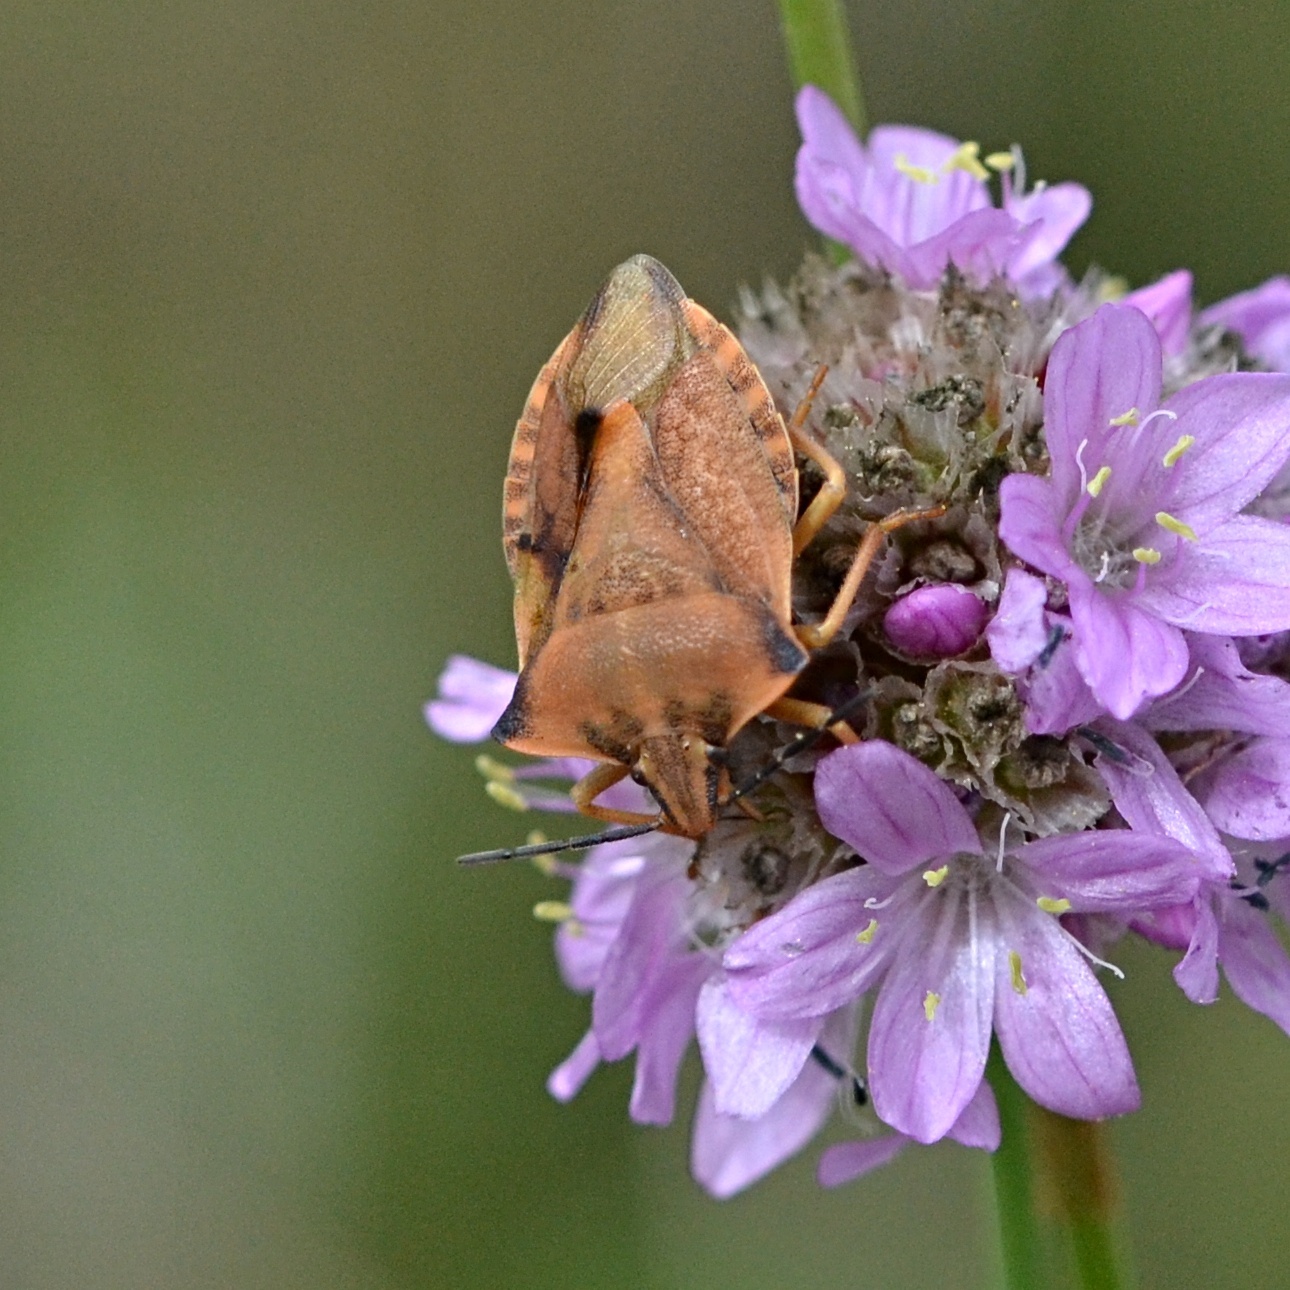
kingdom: Animalia
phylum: Arthropoda
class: Insecta
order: Hemiptera
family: Pentatomidae
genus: Carpocoris
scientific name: Carpocoris fuscispinus
